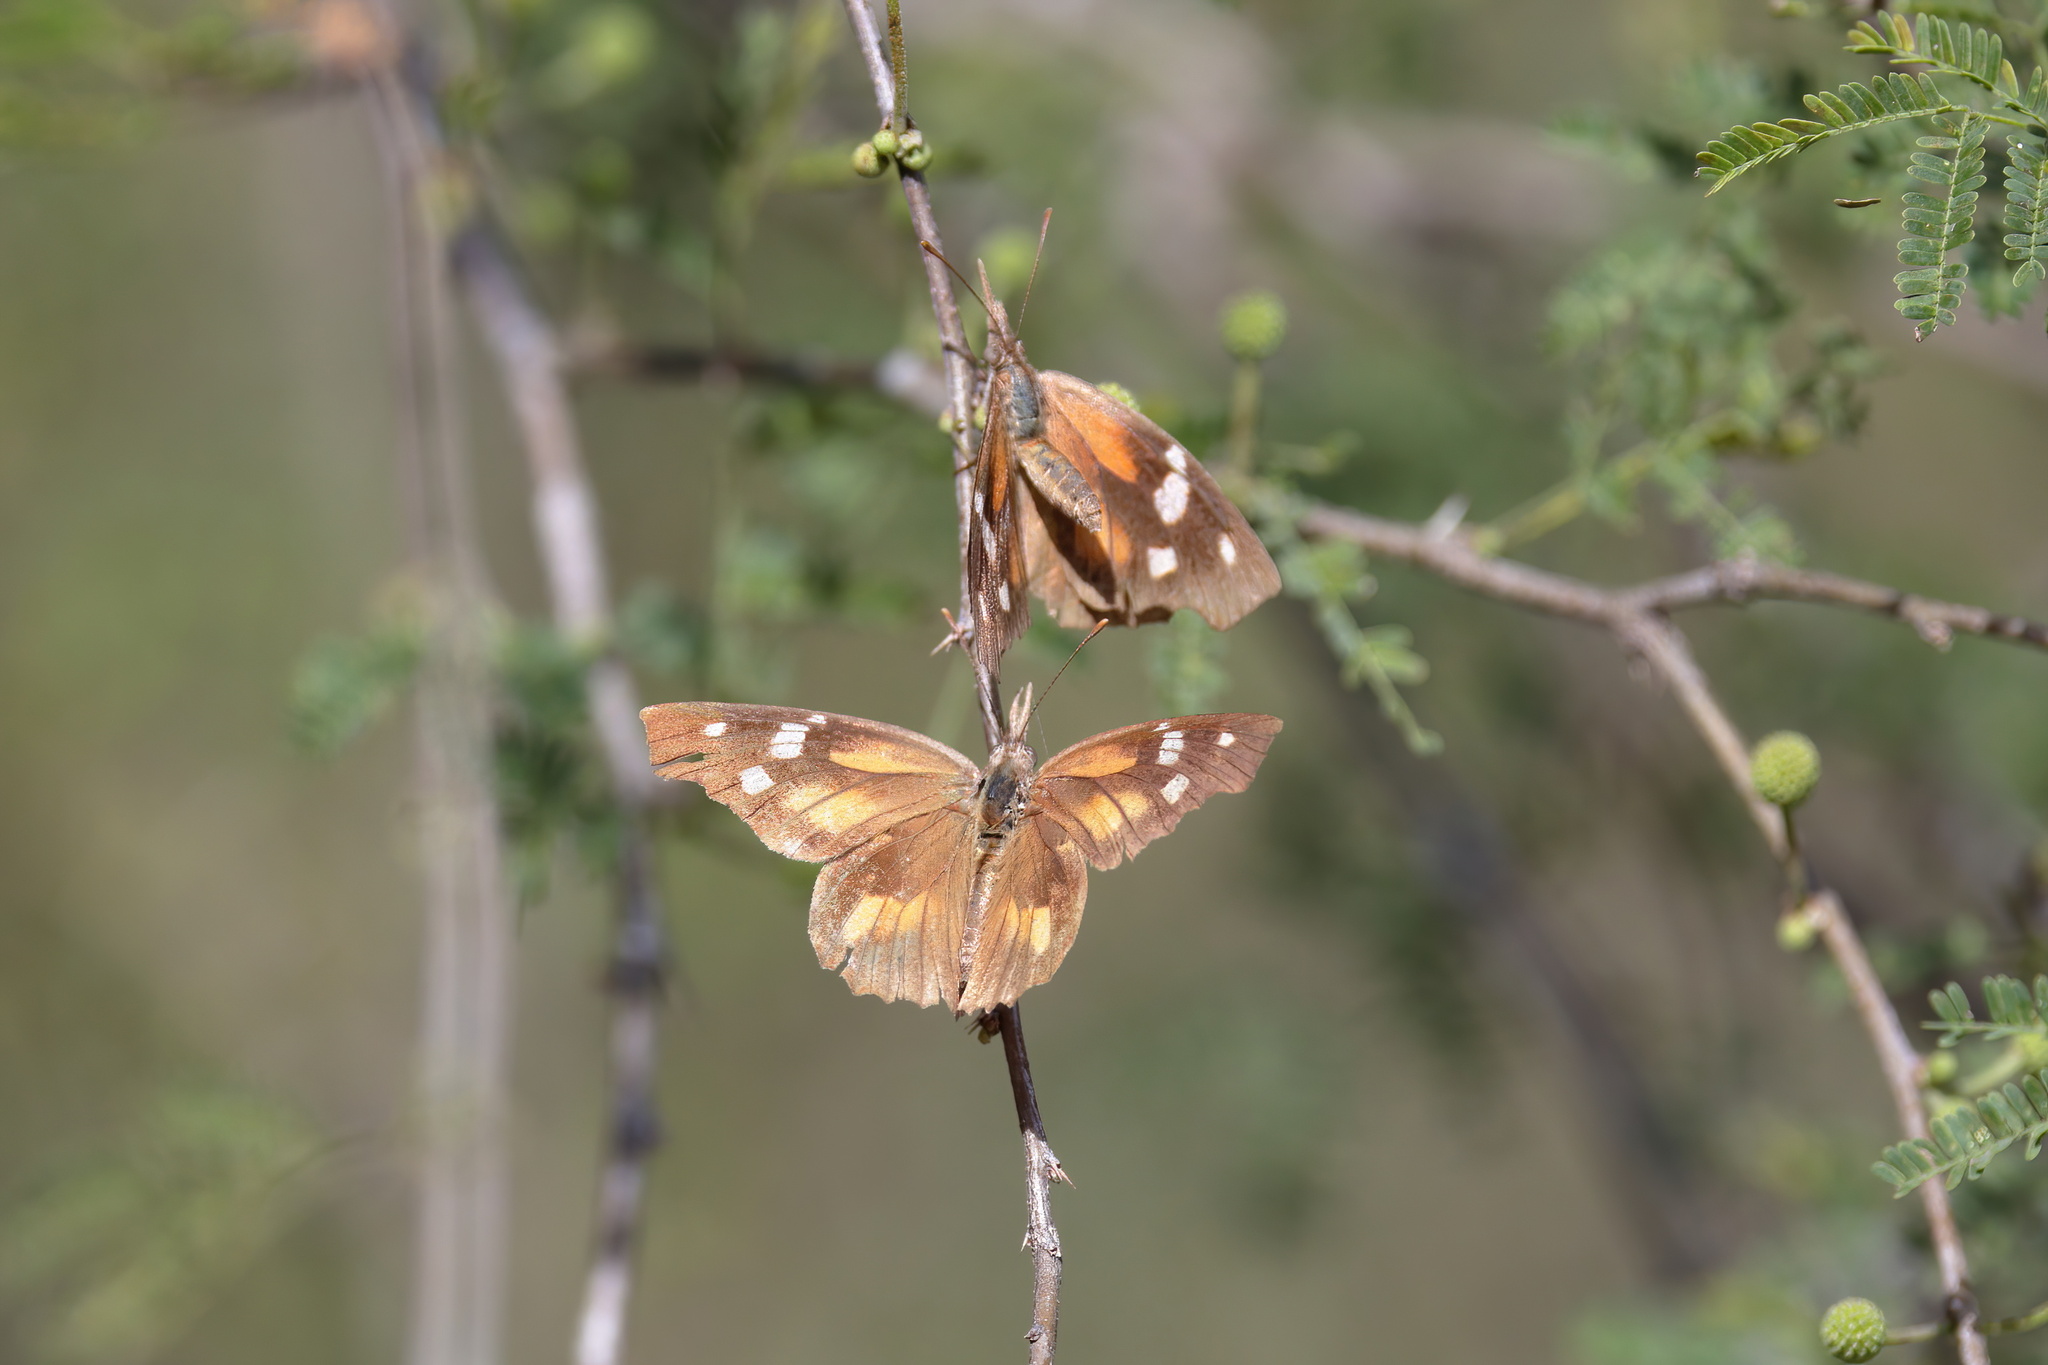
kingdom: Animalia
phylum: Arthropoda
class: Insecta
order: Lepidoptera
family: Nymphalidae
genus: Libytheana
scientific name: Libytheana carinenta
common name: American snout
